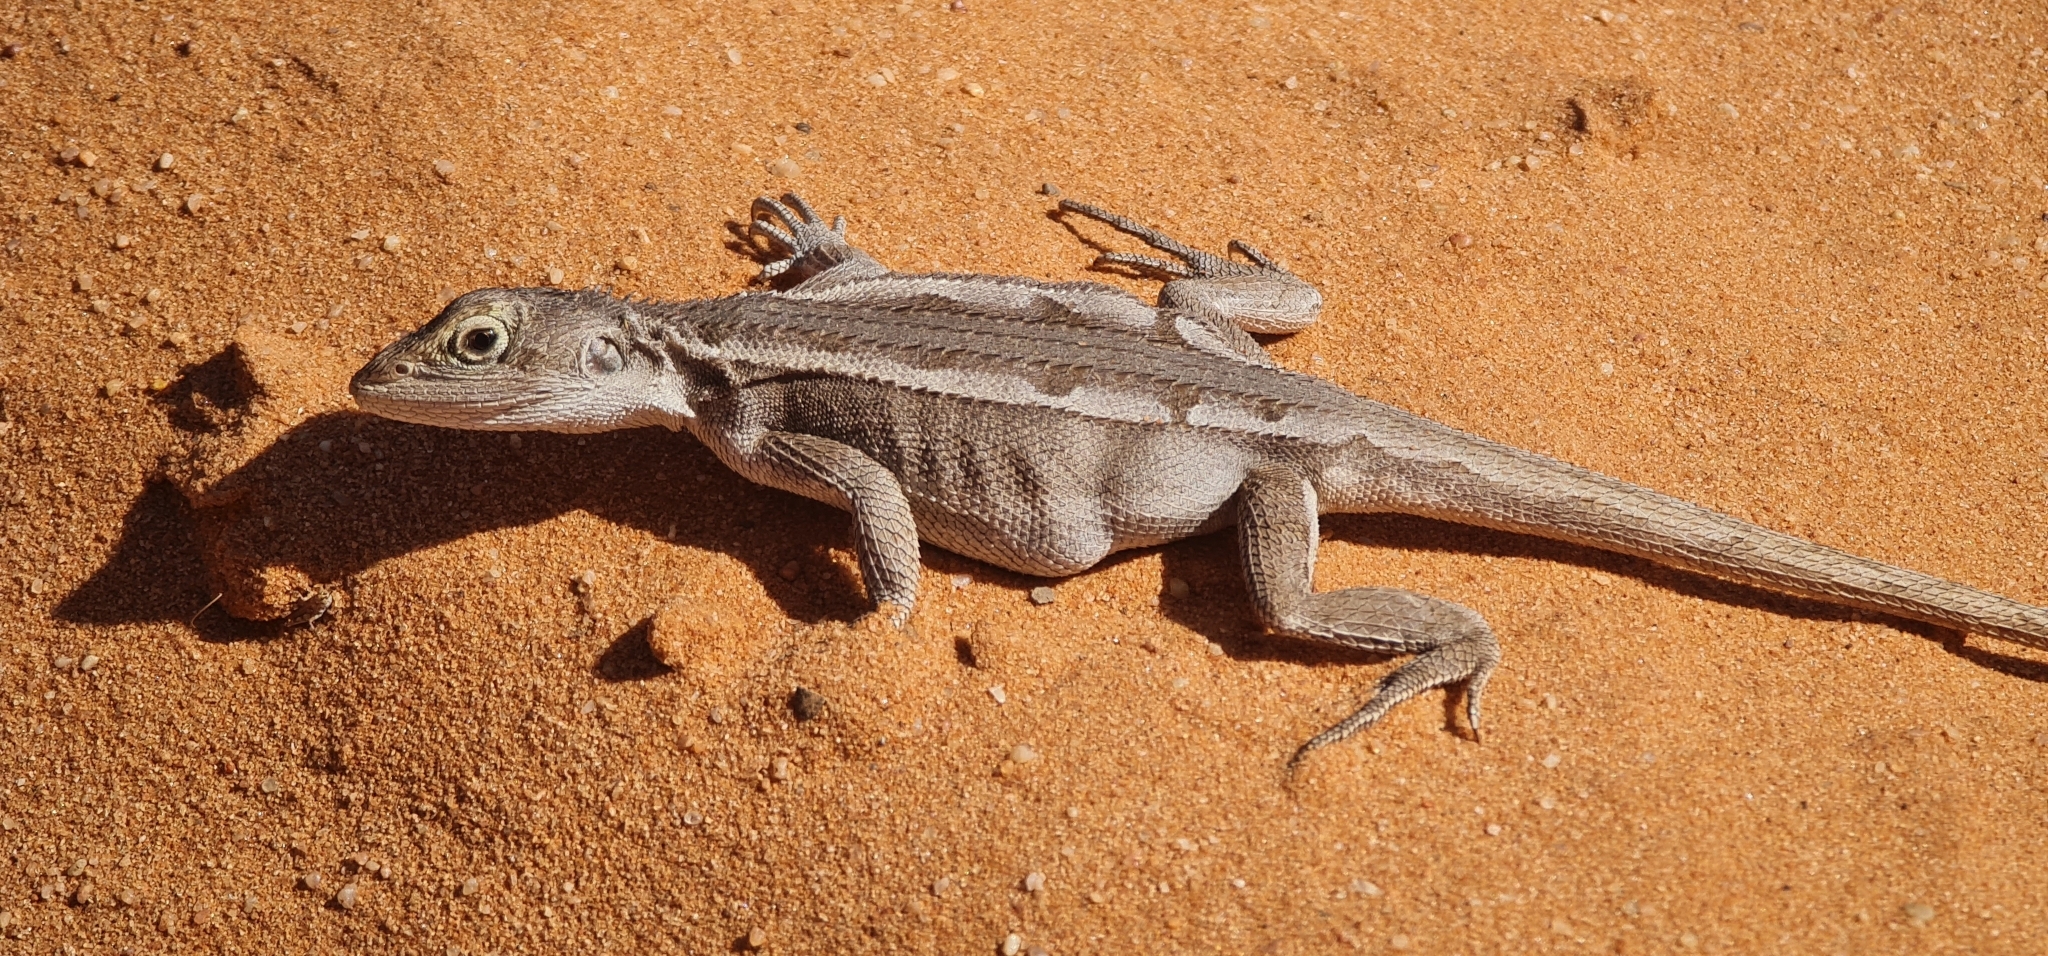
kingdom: Animalia
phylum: Chordata
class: Squamata
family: Agamidae
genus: Diporiphora
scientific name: Diporiphora nobbi
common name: Nobbi
